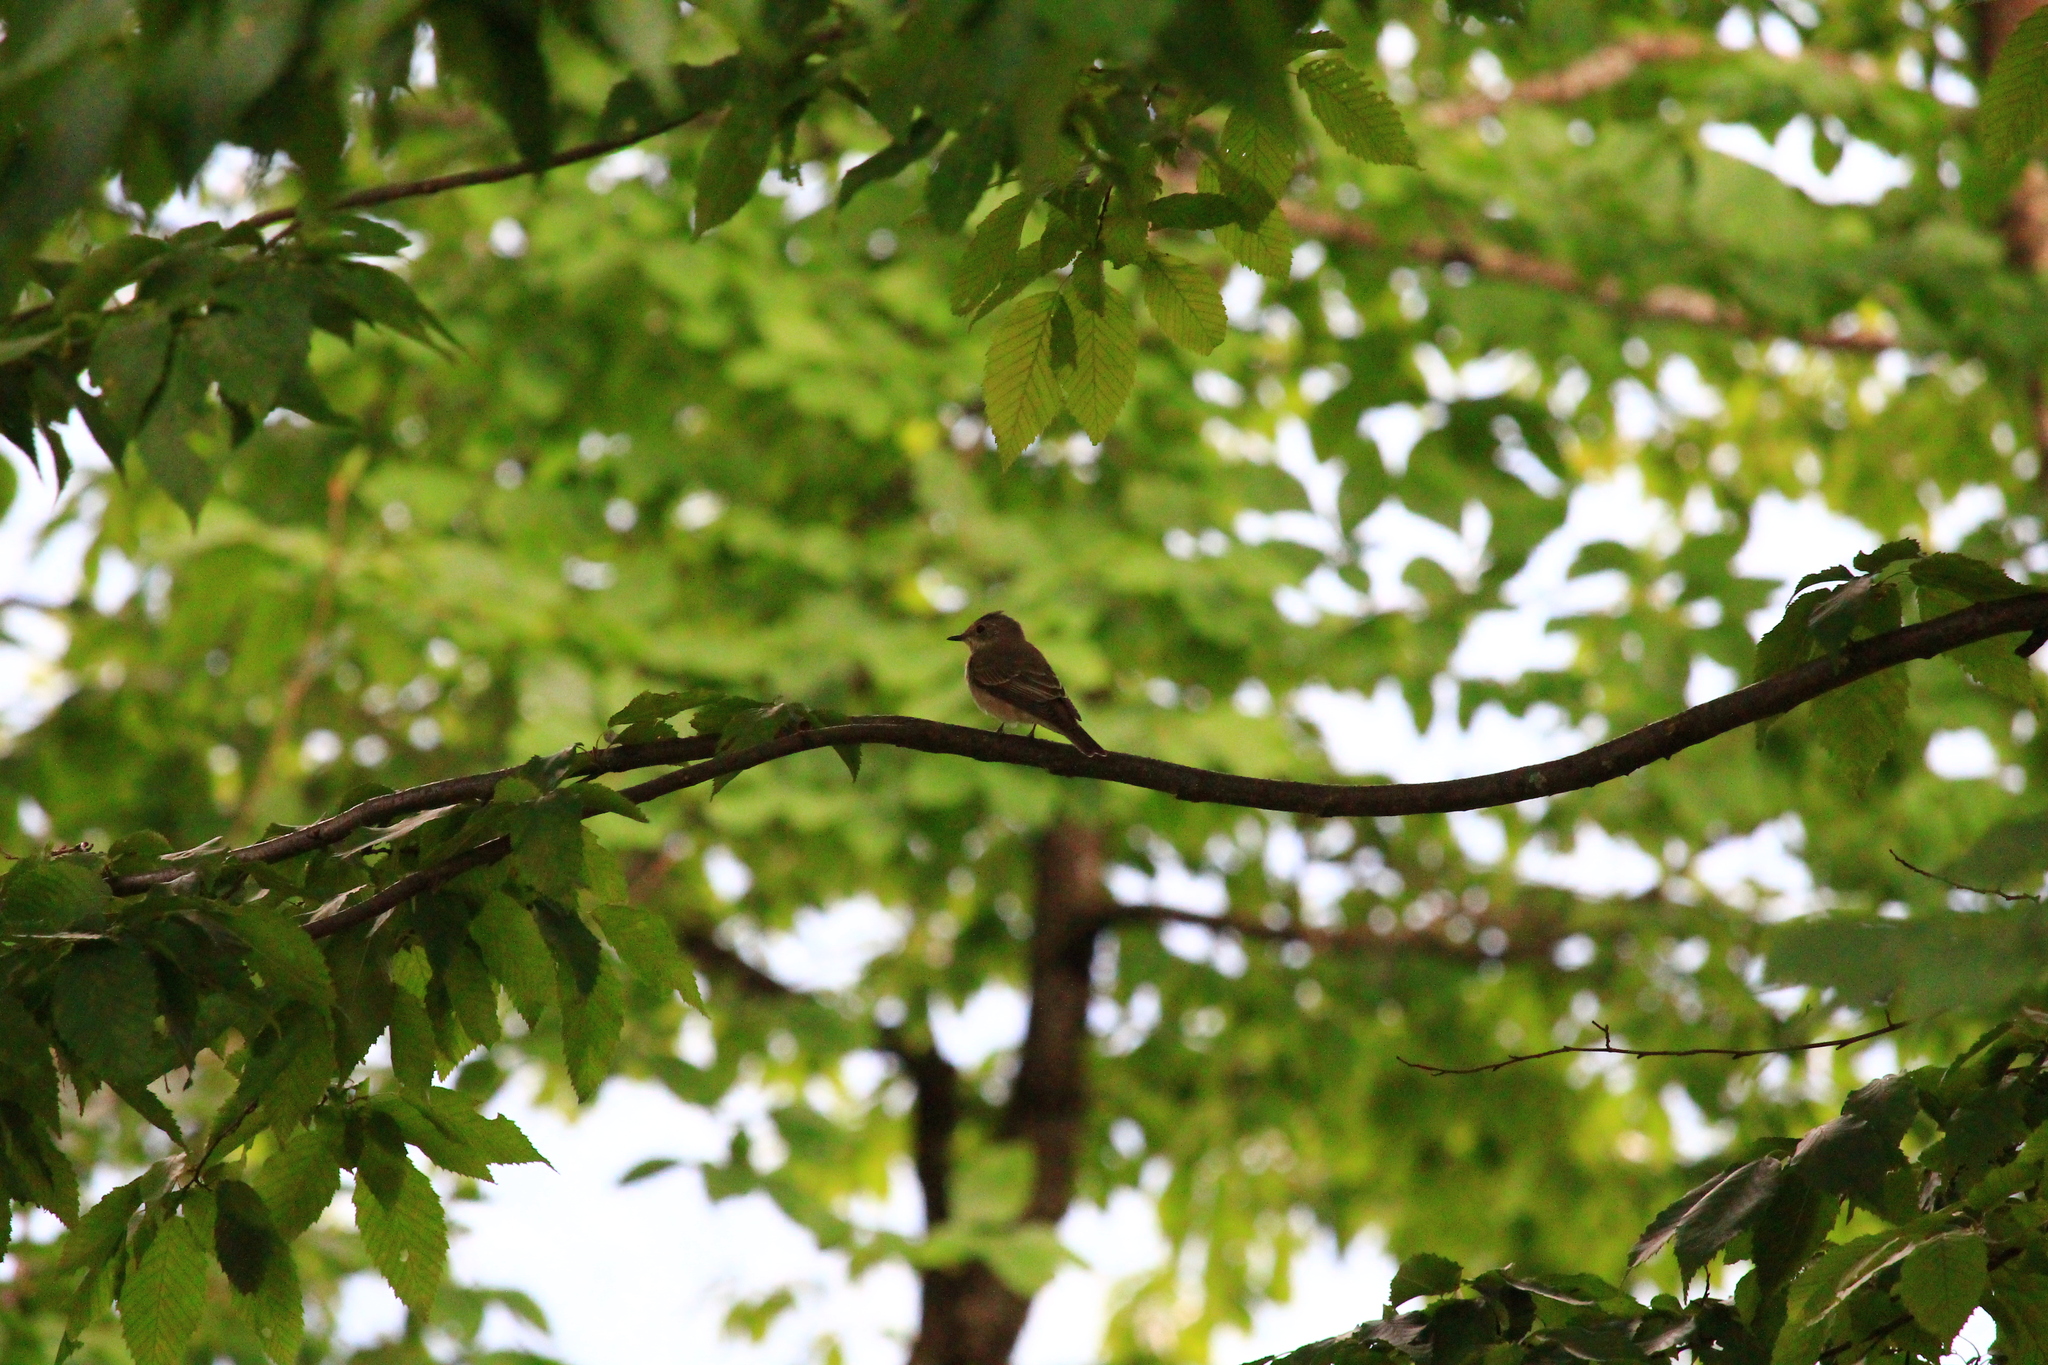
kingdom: Animalia
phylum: Chordata
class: Aves
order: Passeriformes
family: Muscicapidae
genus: Muscicapa
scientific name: Muscicapa striata
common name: Spotted flycatcher
